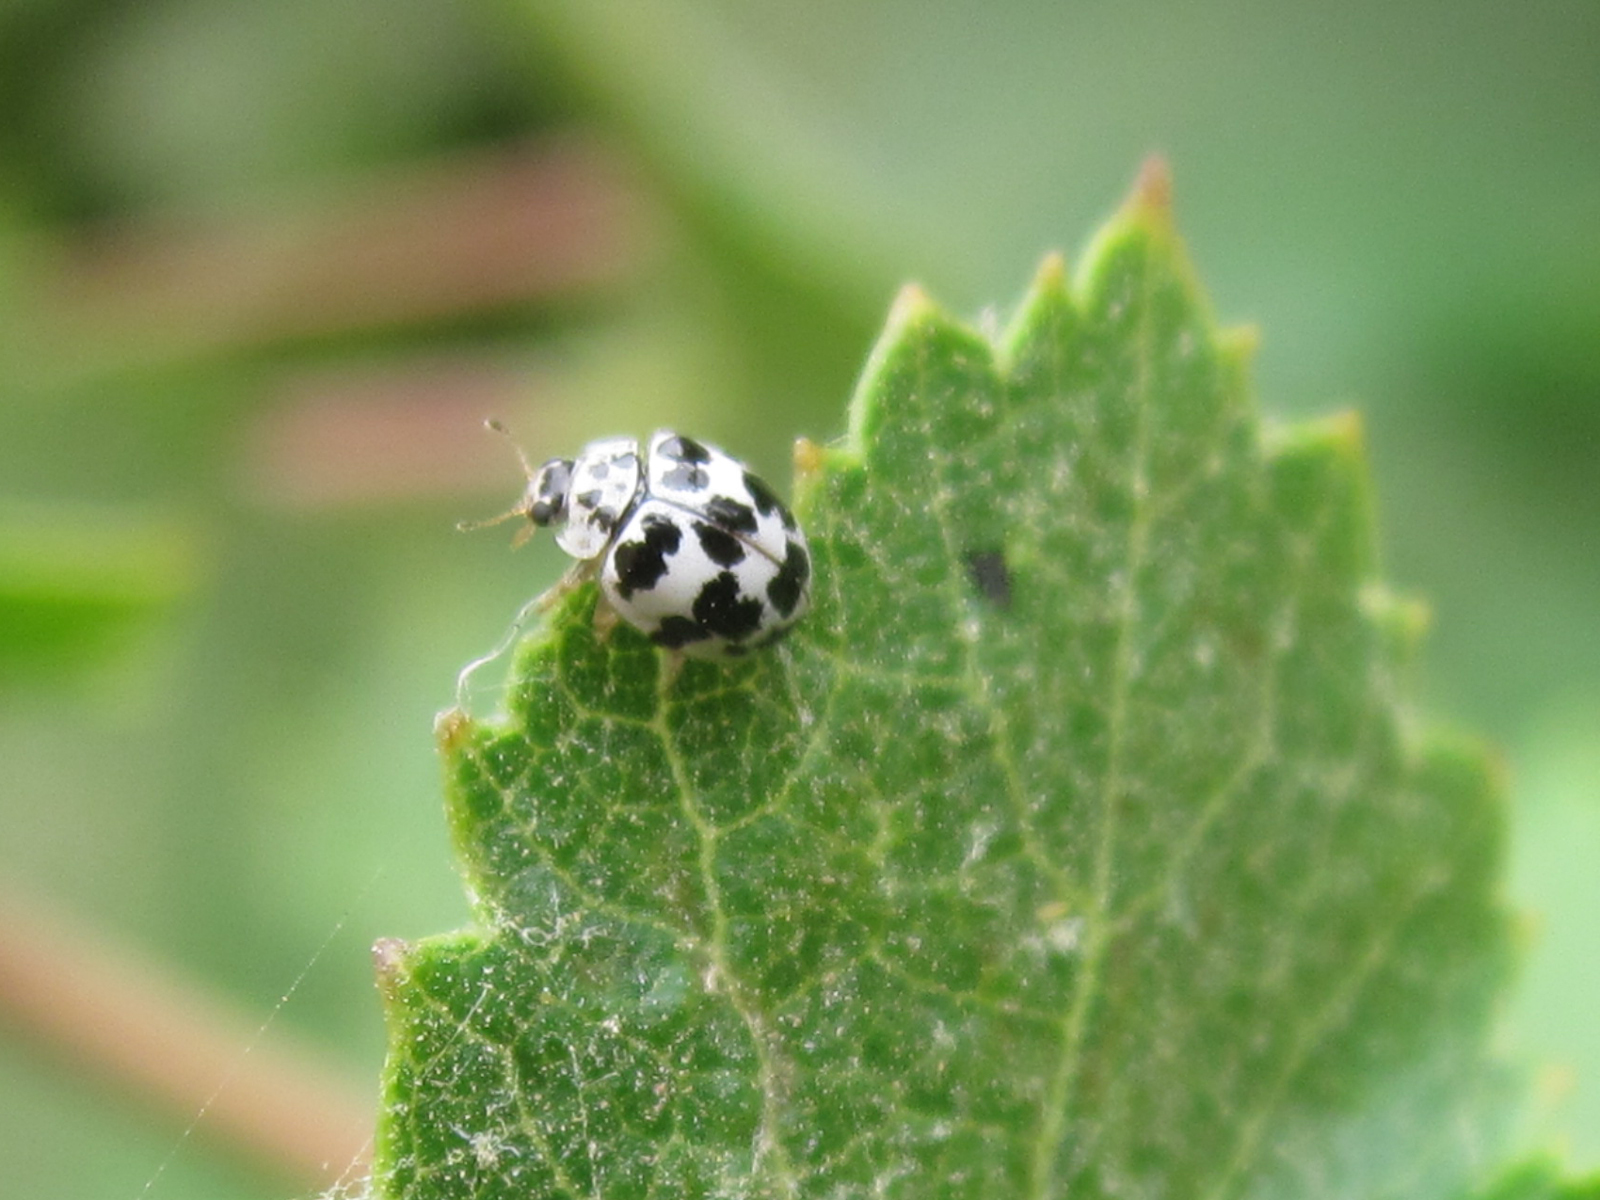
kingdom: Animalia
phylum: Arthropoda
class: Insecta
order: Coleoptera
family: Coccinellidae
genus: Psyllobora
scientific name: Psyllobora
